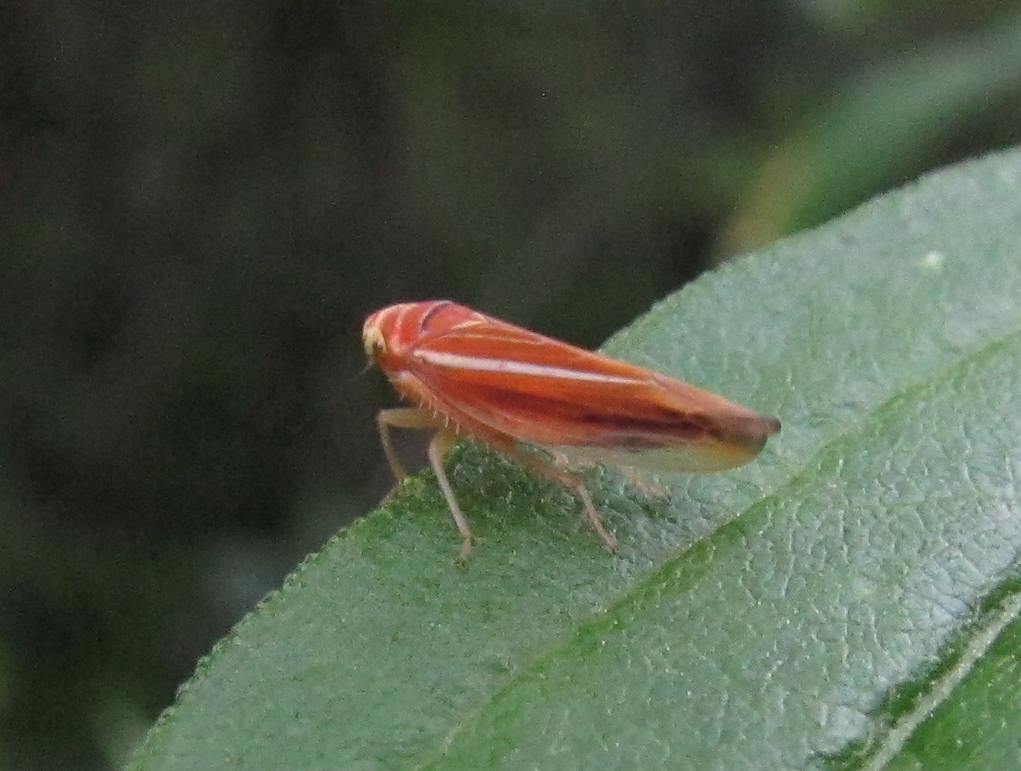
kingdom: Animalia
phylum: Arthropoda
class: Insecta
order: Hemiptera
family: Cicadellidae
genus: Idiodonus
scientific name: Idiodonus kennicotti
